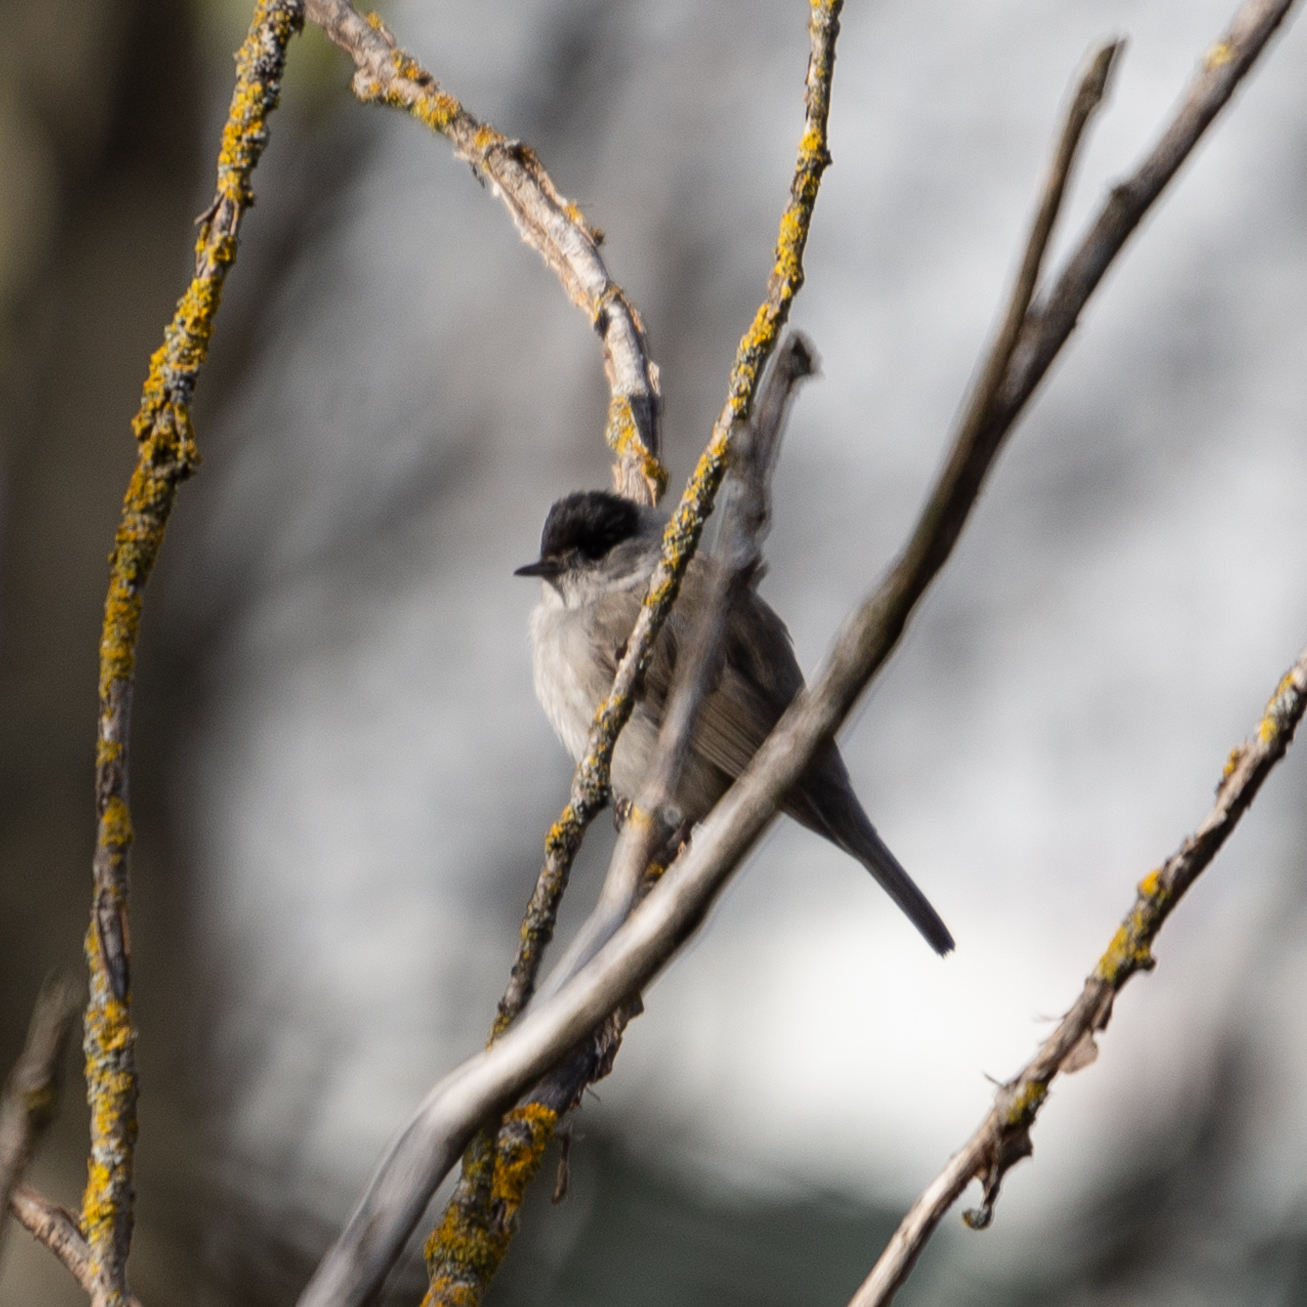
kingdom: Animalia
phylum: Chordata
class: Aves
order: Passeriformes
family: Sylviidae
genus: Sylvia
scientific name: Sylvia atricapilla
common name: Eurasian blackcap
